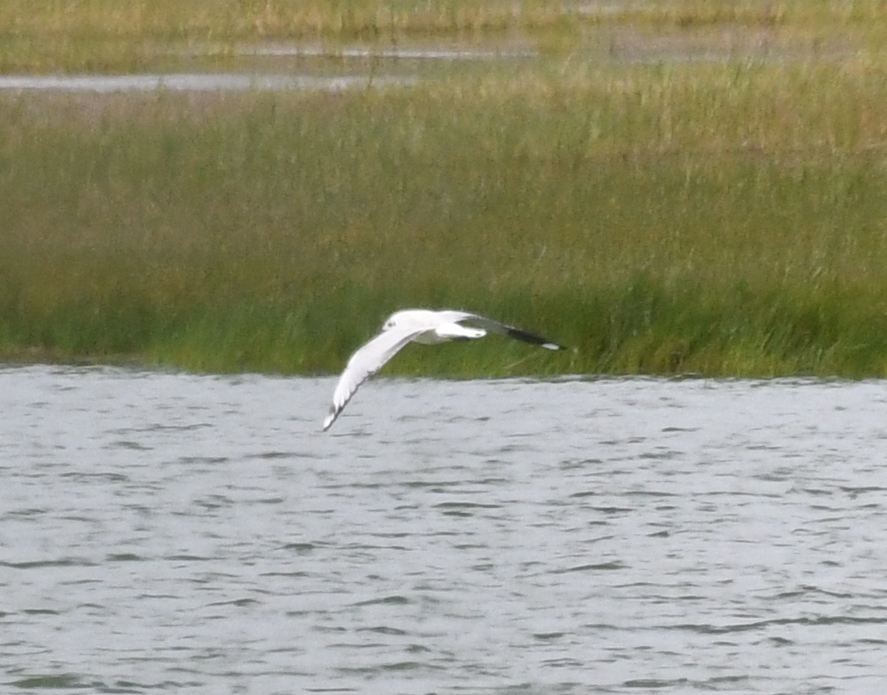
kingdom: Animalia
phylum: Chordata
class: Aves
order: Charadriiformes
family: Laridae
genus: Chroicocephalus
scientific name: Chroicocephalus serranus
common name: Andean gull
